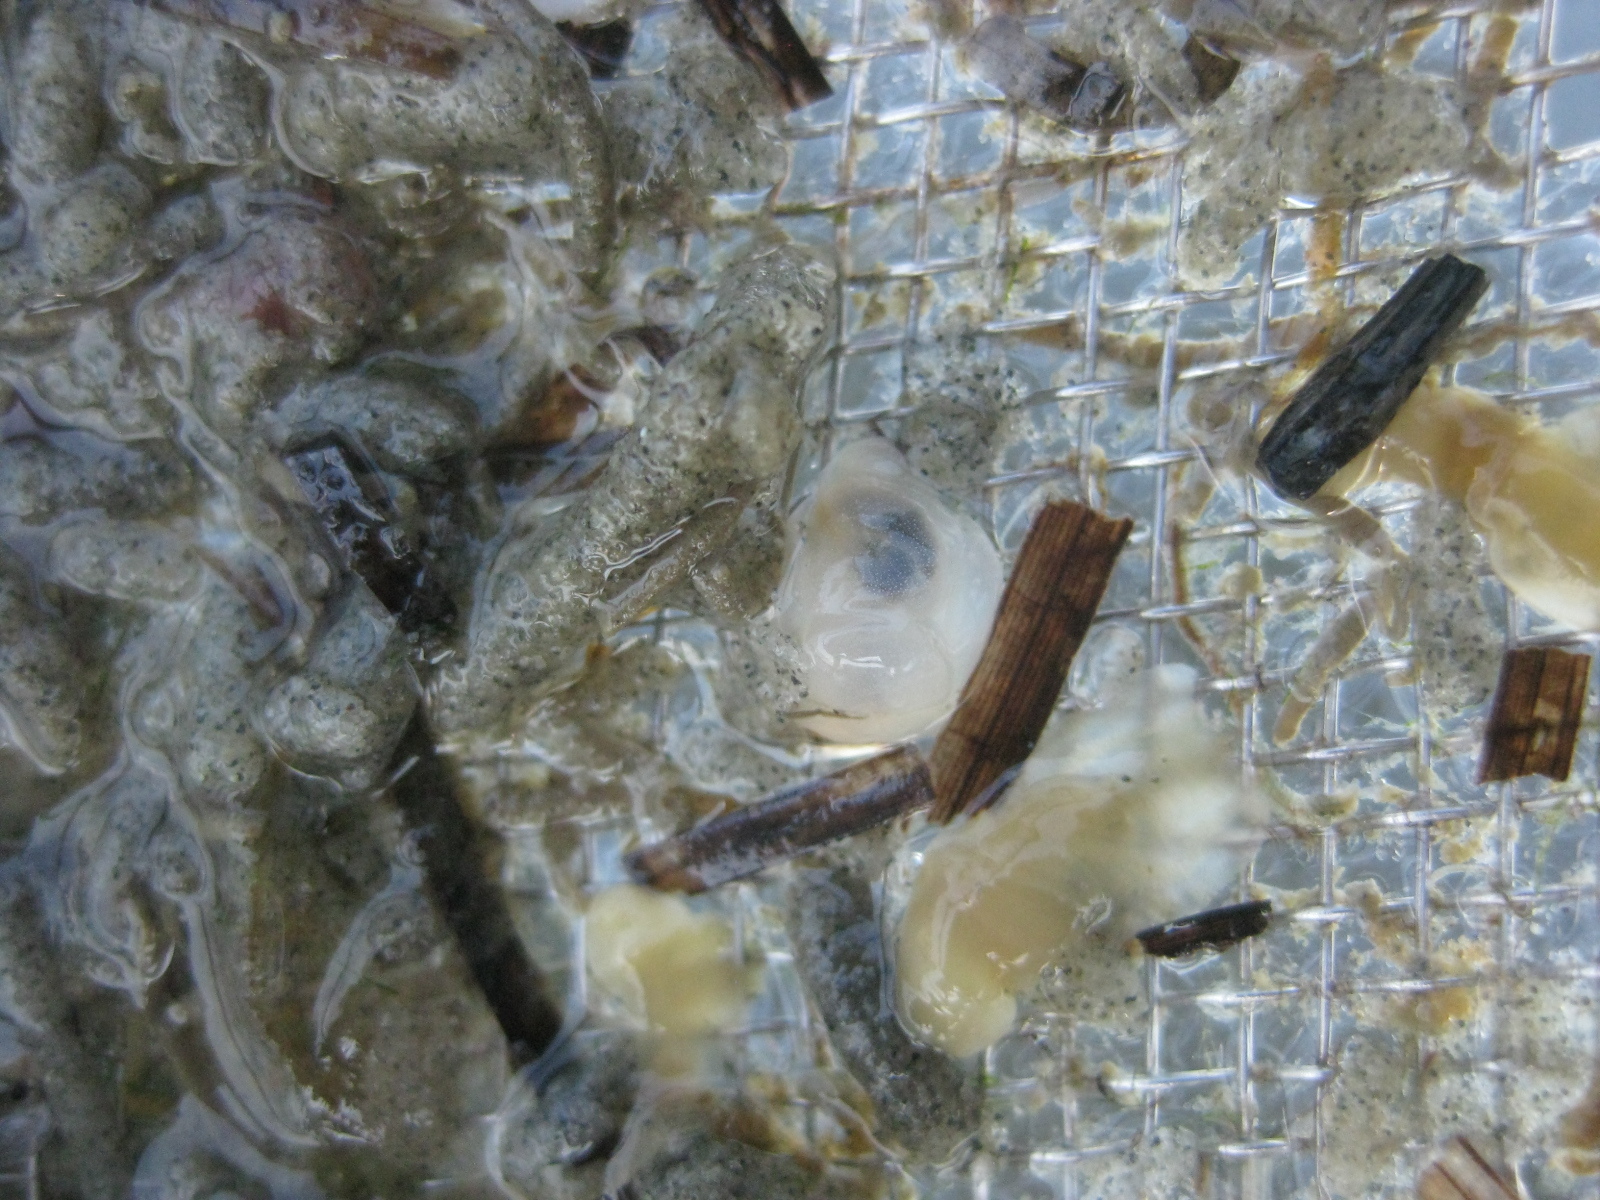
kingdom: Animalia
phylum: Mollusca
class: Gastropoda
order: Cephalaspidea
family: Philinidae
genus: Philine
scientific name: Philine
